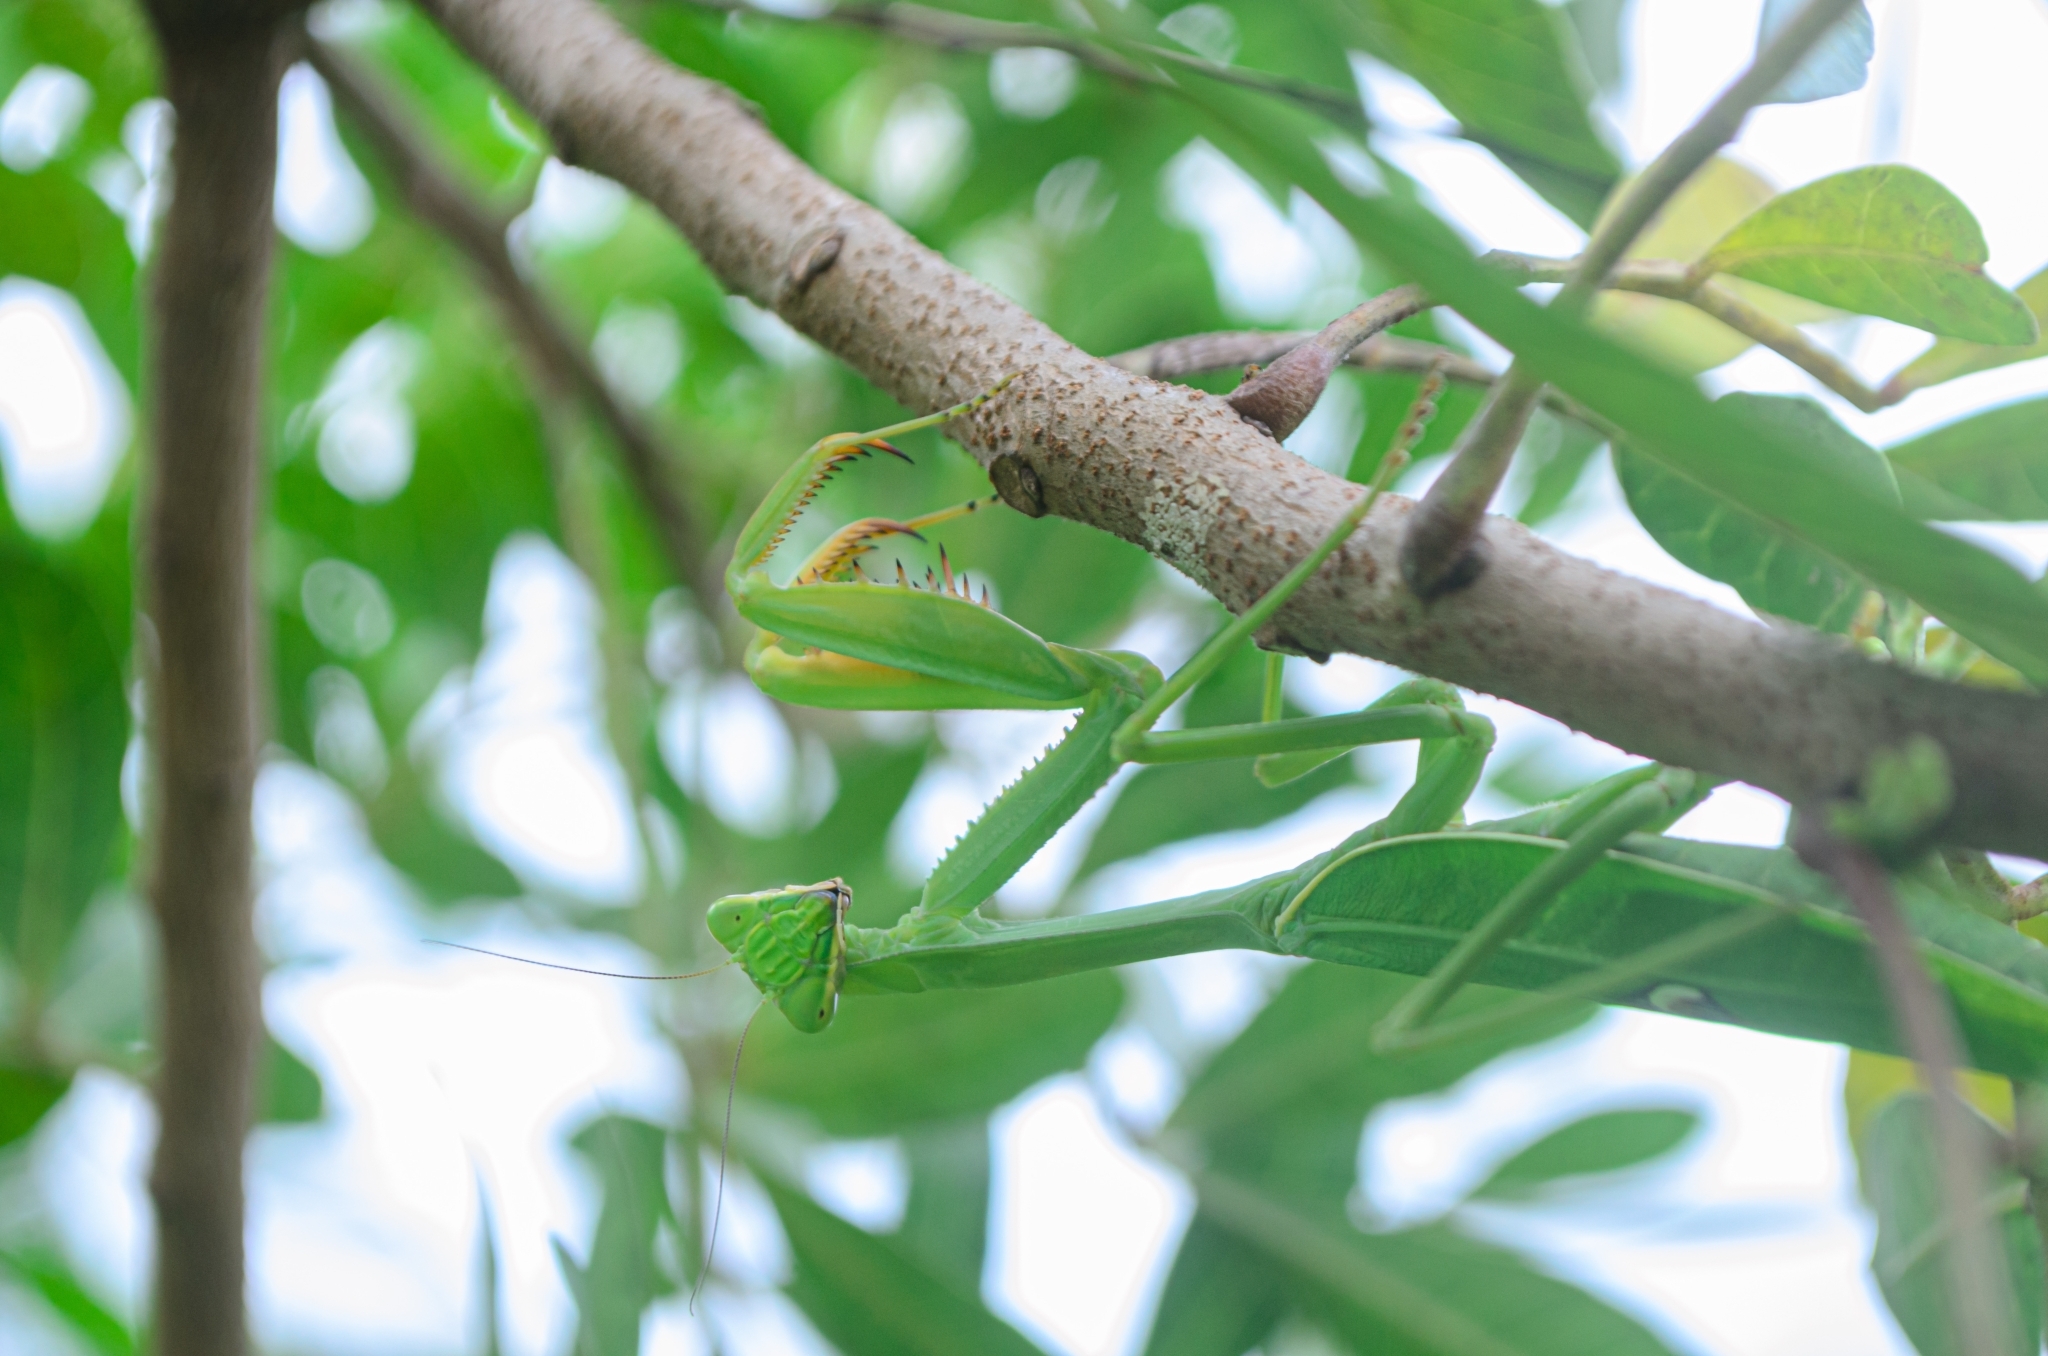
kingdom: Animalia
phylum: Arthropoda
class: Insecta
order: Mantodea
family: Mantidae
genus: Stagmatoptera
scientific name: Stagmatoptera hyaloptera
